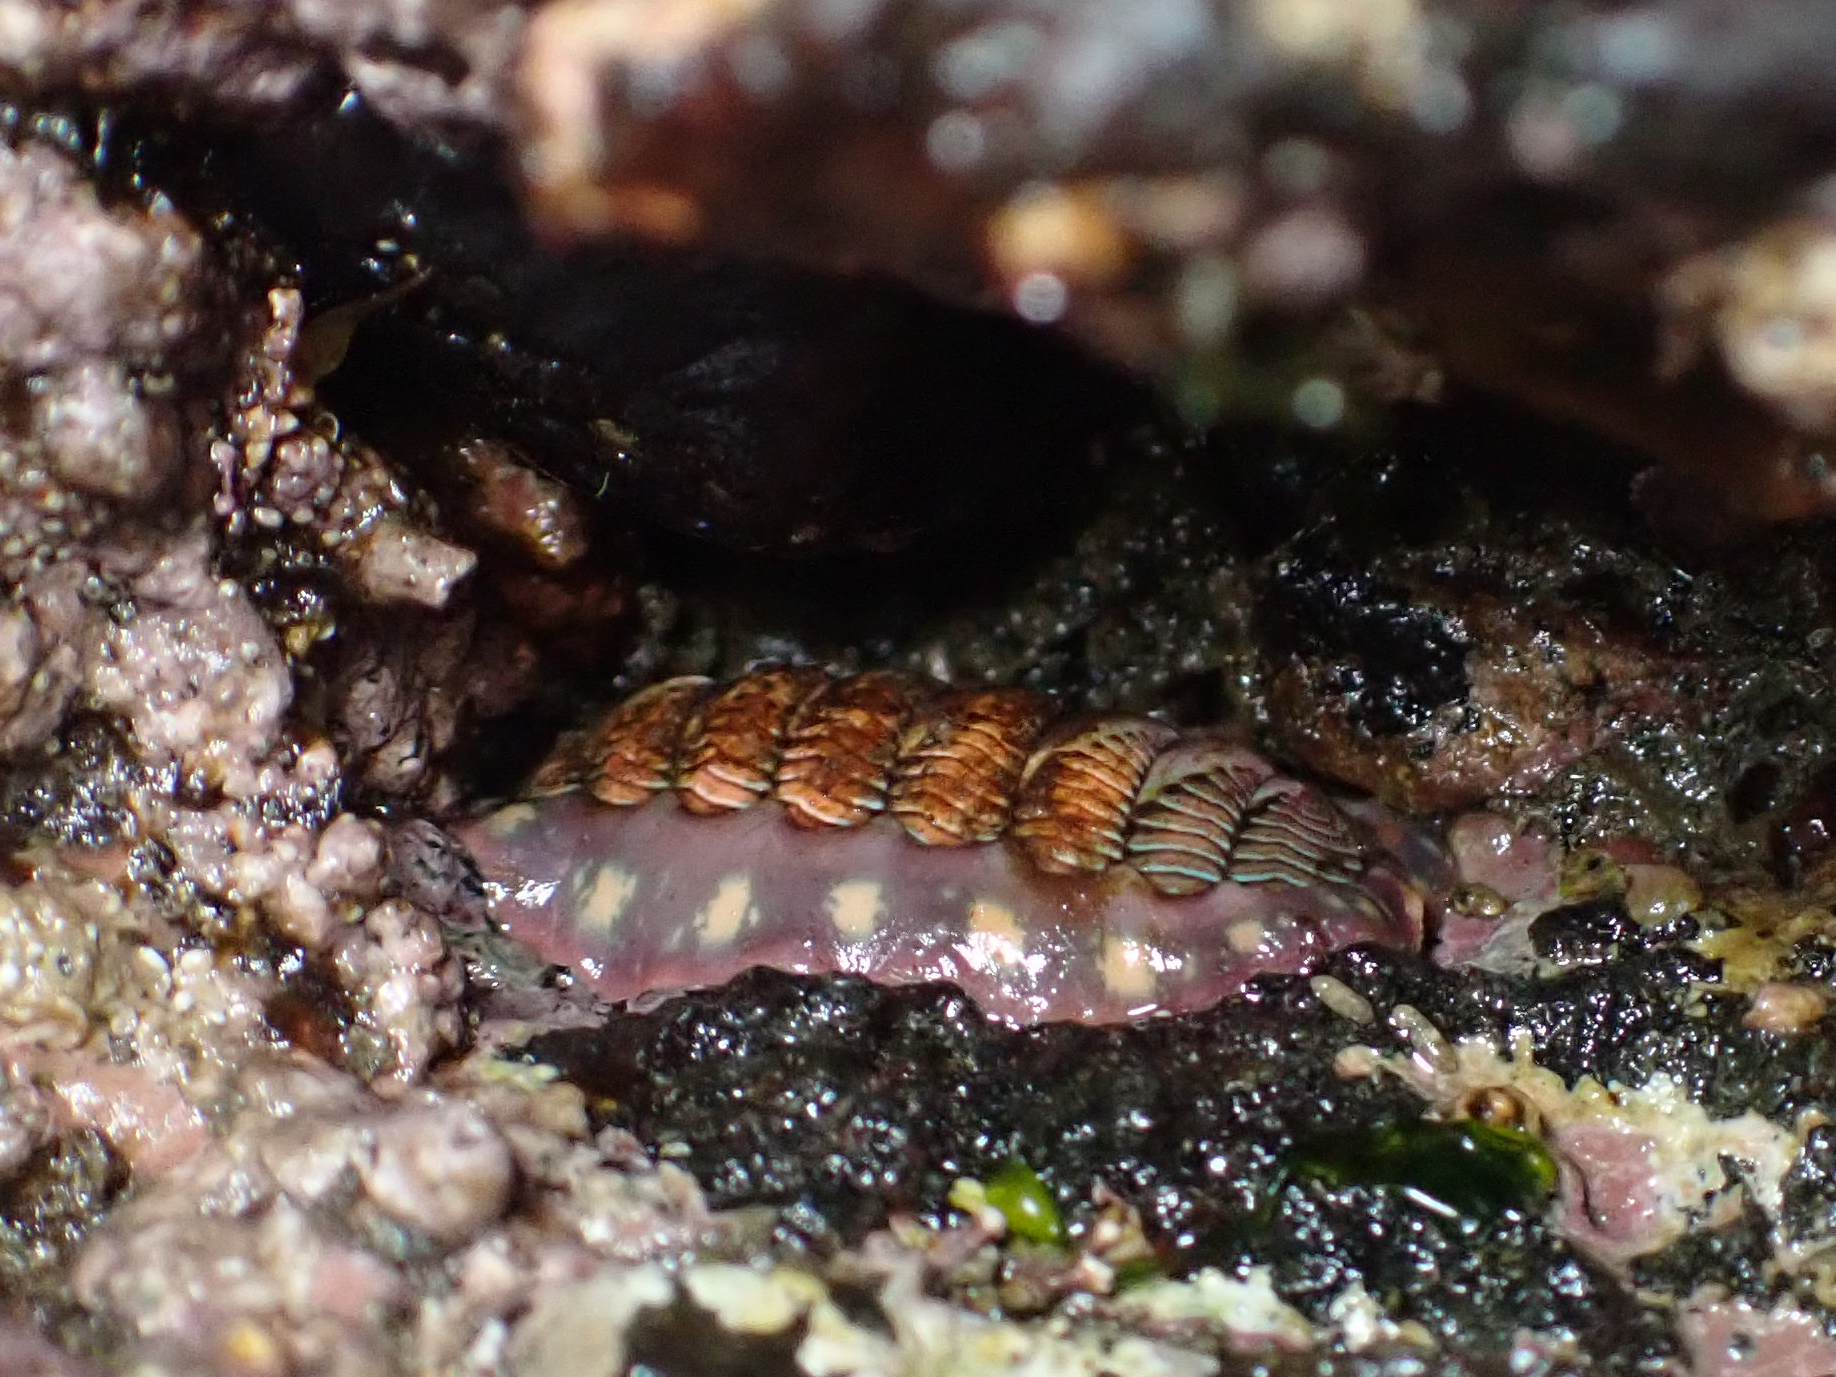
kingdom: Animalia
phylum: Mollusca
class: Polyplacophora
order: Chitonida
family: Tonicellidae
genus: Tonicella
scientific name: Tonicella lineata
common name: Lined chiton
